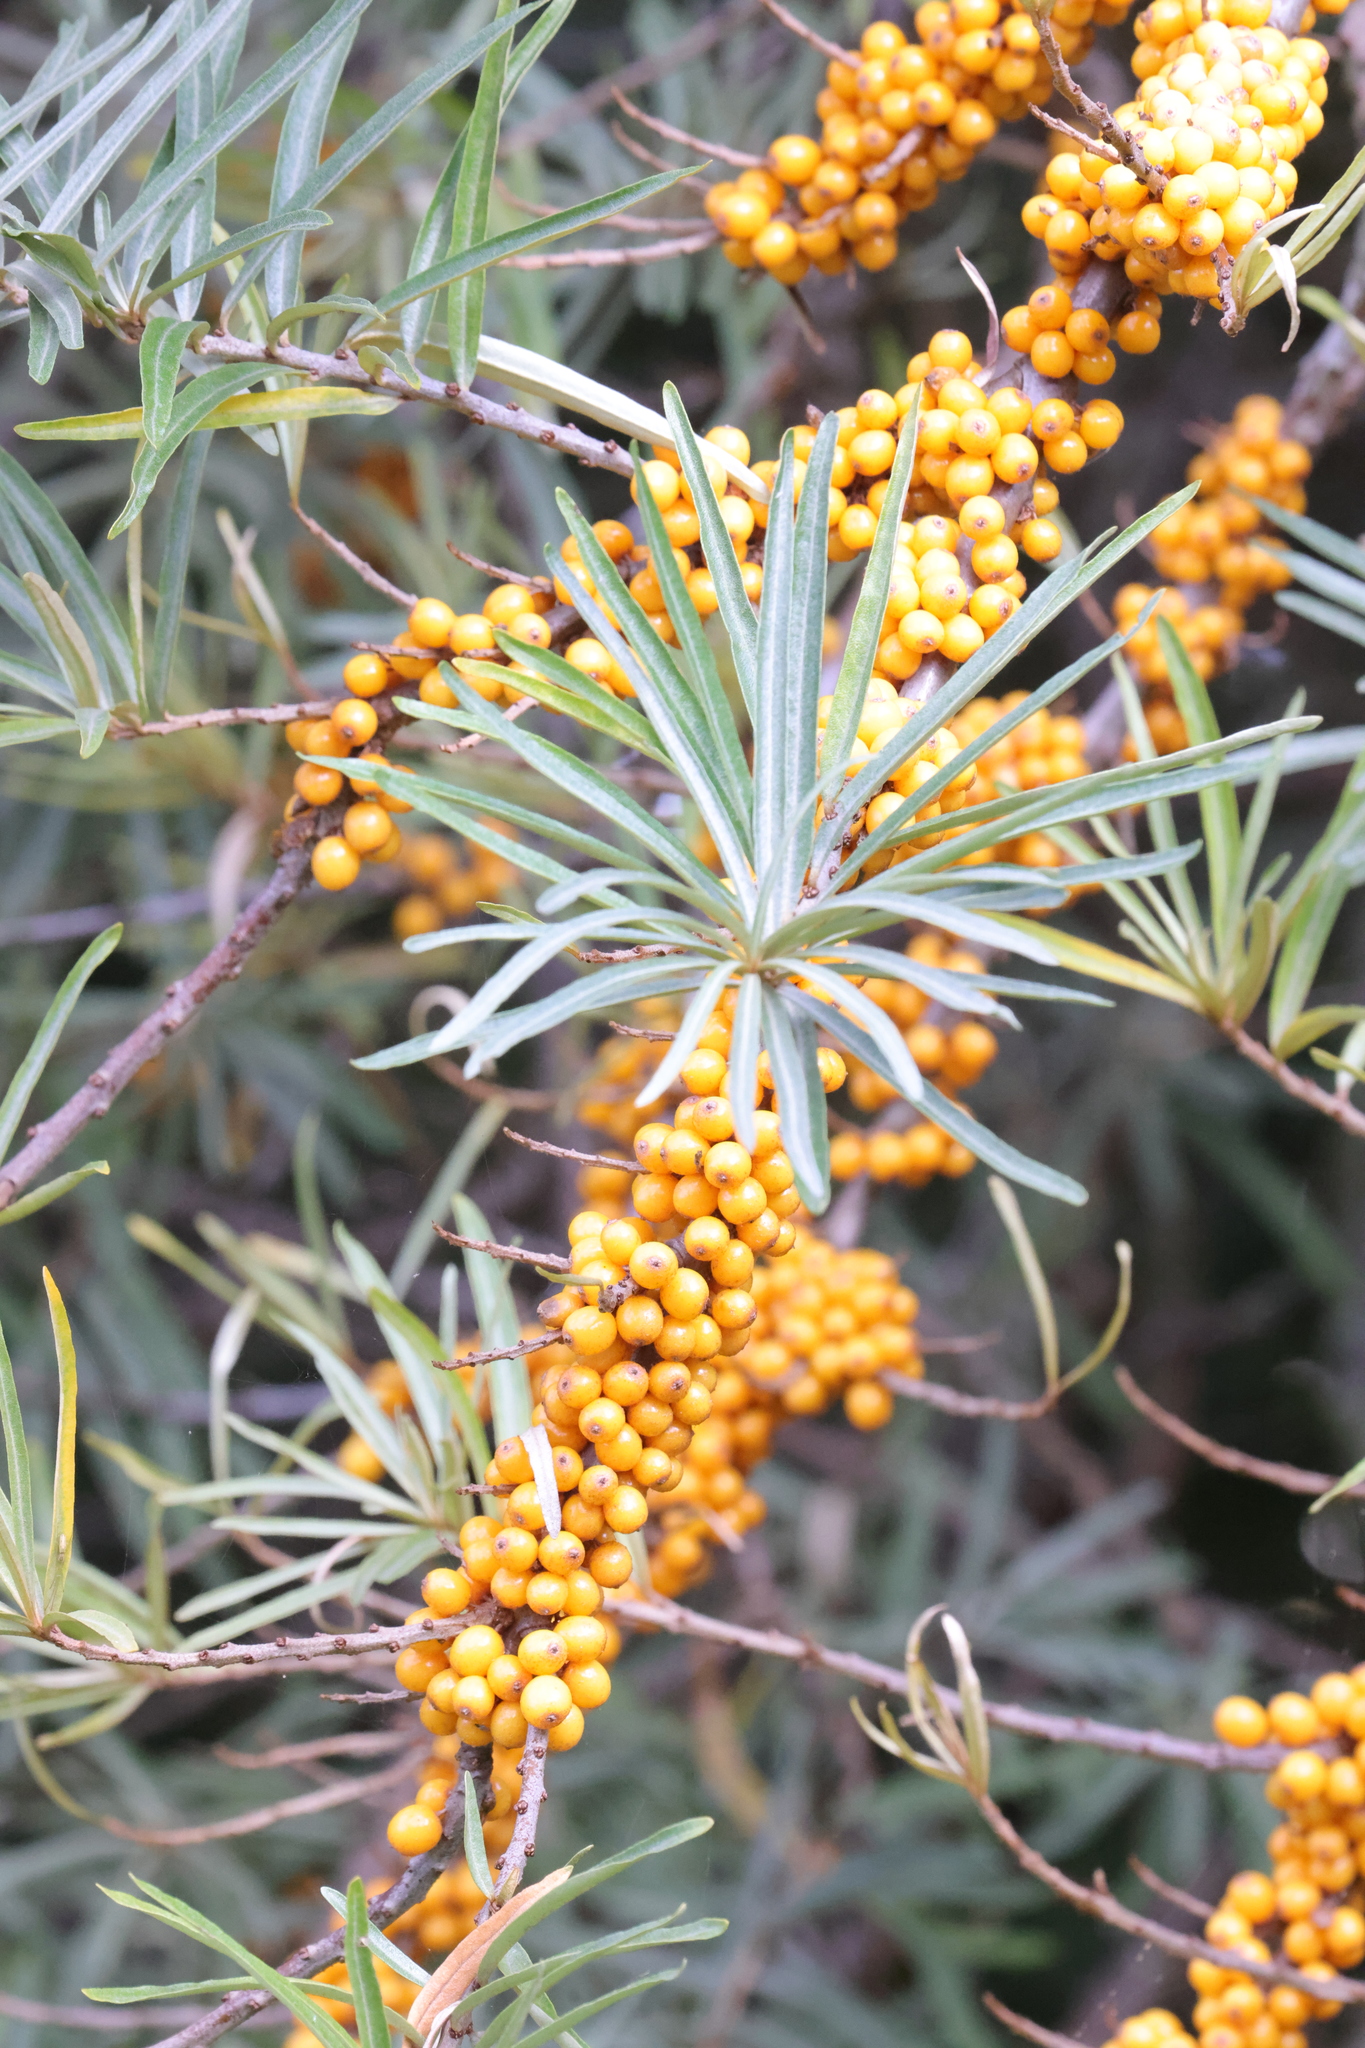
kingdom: Plantae
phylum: Tracheophyta
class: Magnoliopsida
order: Rosales
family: Elaeagnaceae
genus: Hippophae
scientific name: Hippophae rhamnoides
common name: Sea-buckthorn
